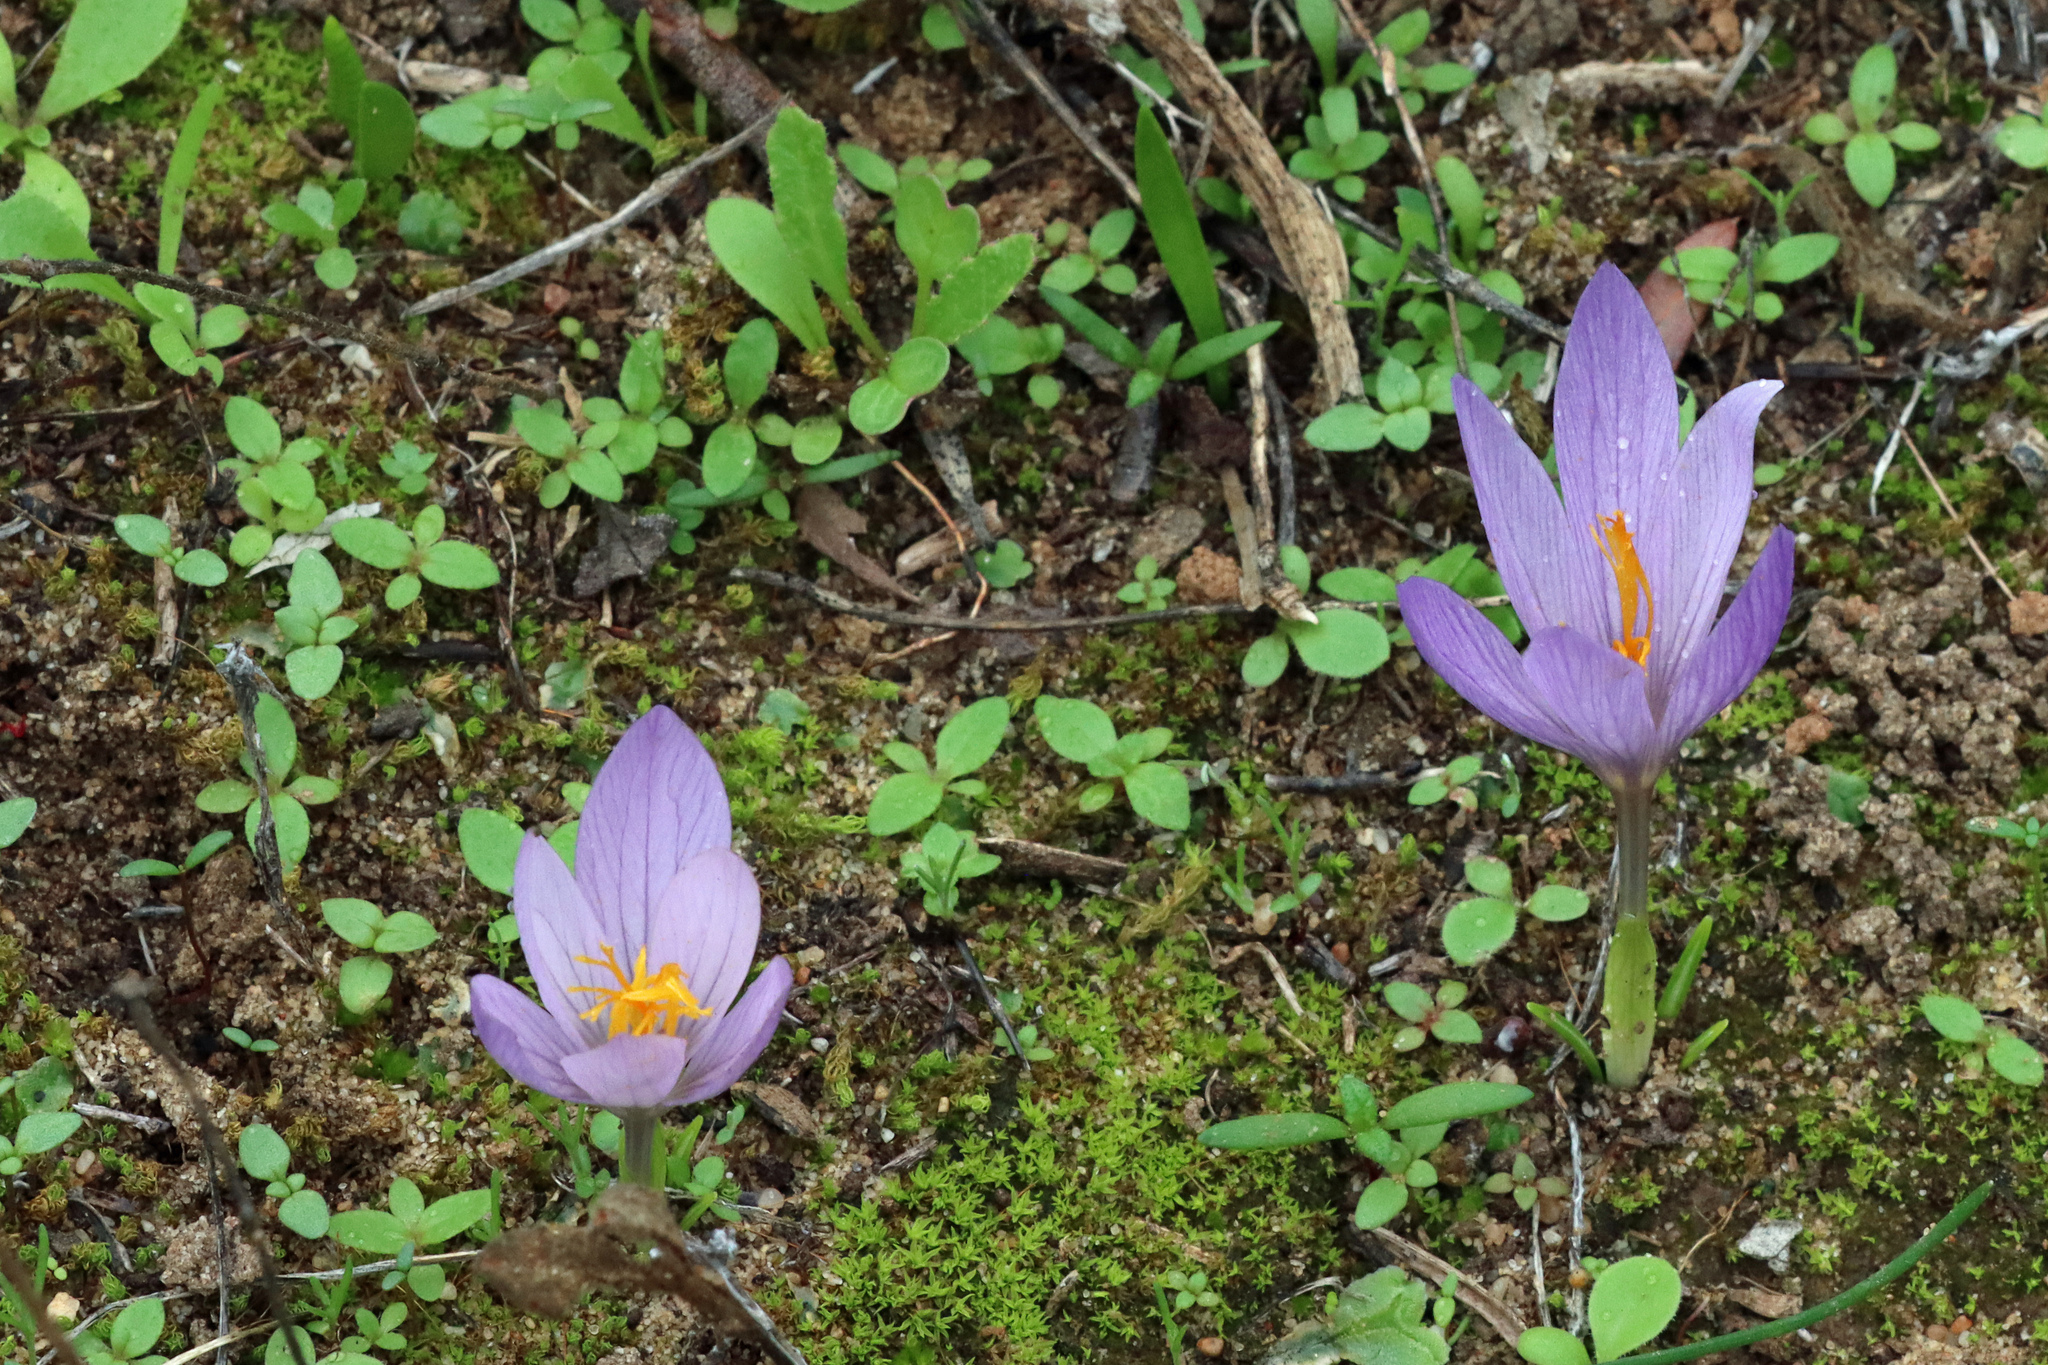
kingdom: Plantae
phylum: Tracheophyta
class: Liliopsida
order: Asparagales
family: Iridaceae
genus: Crocus
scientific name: Crocus serotinus
